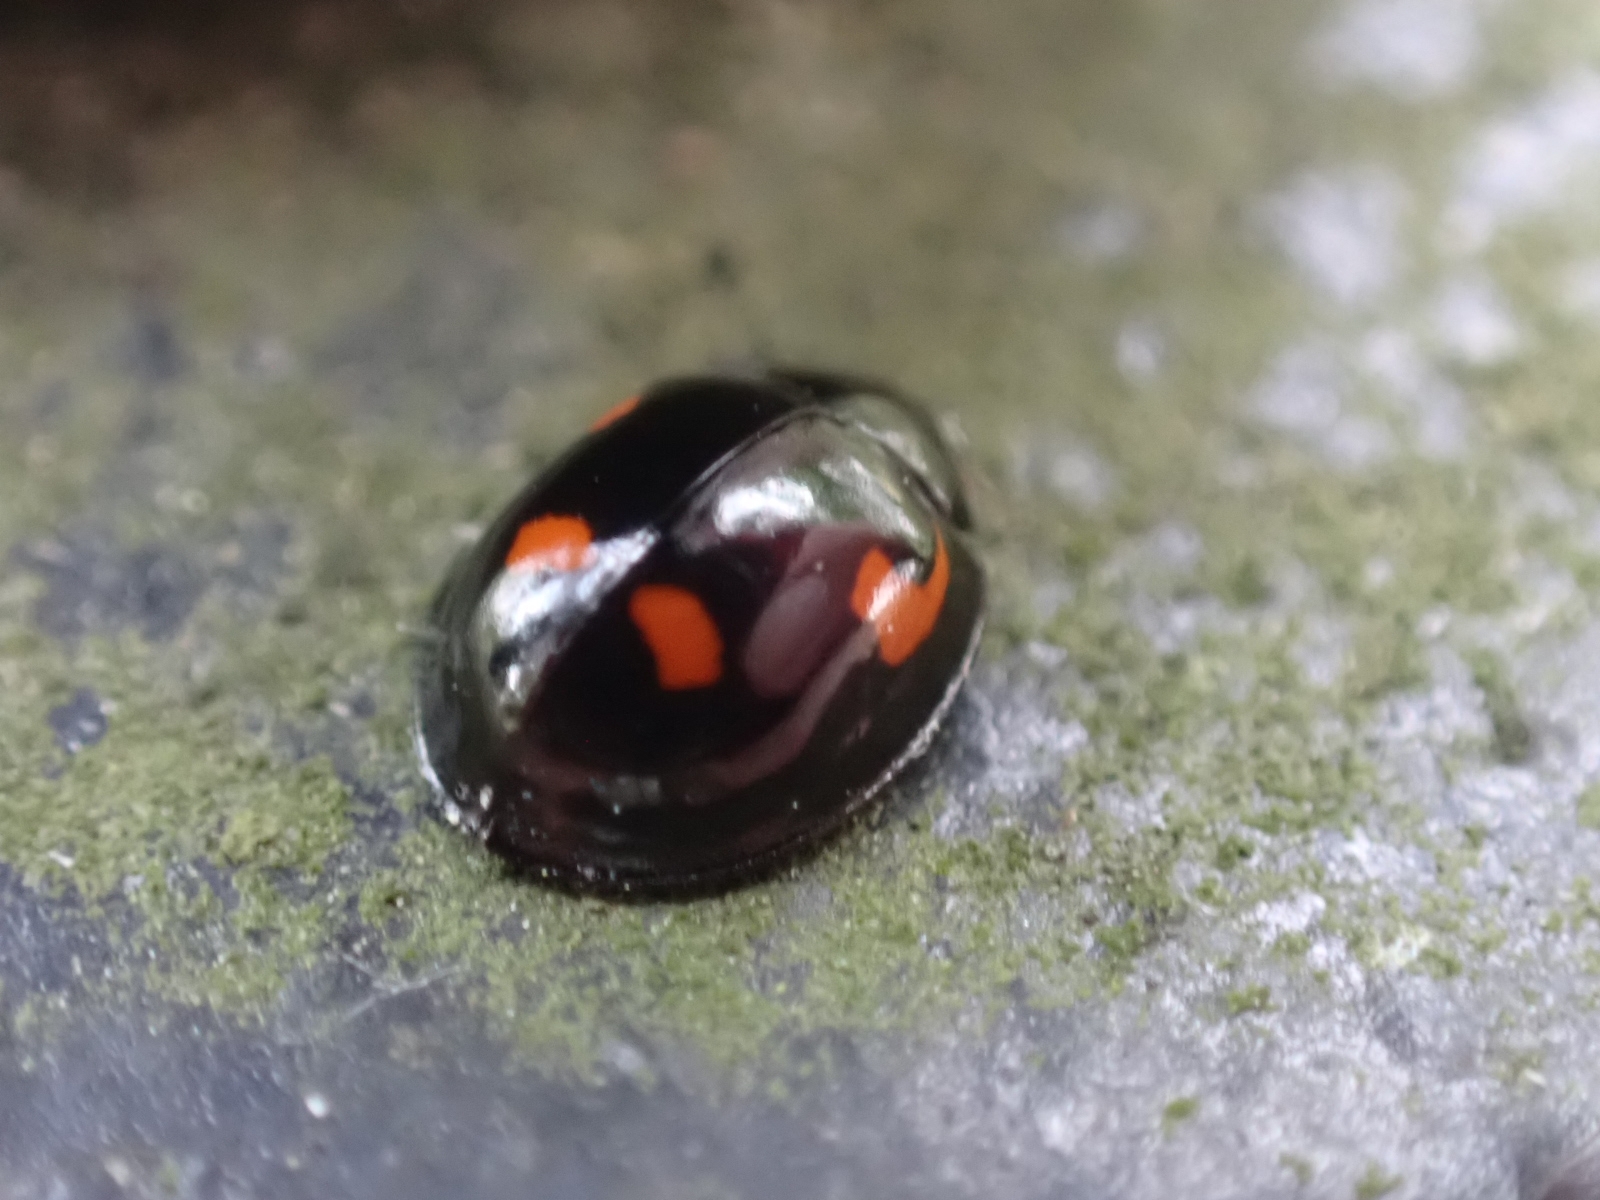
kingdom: Animalia
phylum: Arthropoda
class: Insecta
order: Coleoptera
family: Coccinellidae
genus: Brumus
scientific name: Brumus quadripustulatus
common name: Ladybird beetle
